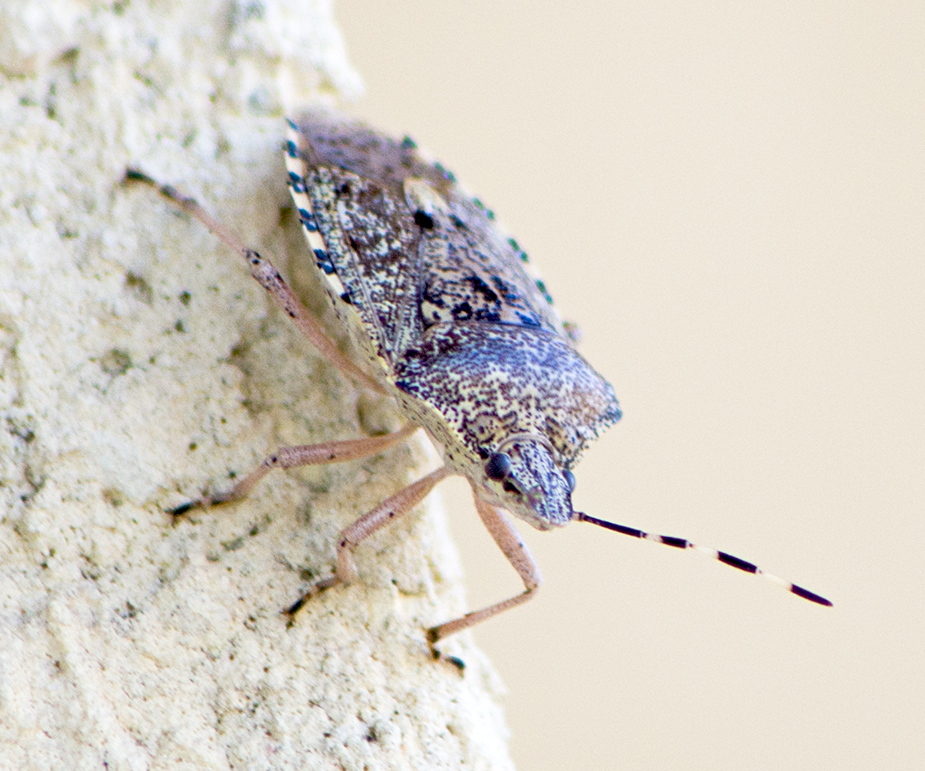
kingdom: Animalia
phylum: Arthropoda
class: Insecta
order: Hemiptera
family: Pentatomidae
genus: Rhaphigaster
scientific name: Rhaphigaster nebulosa
